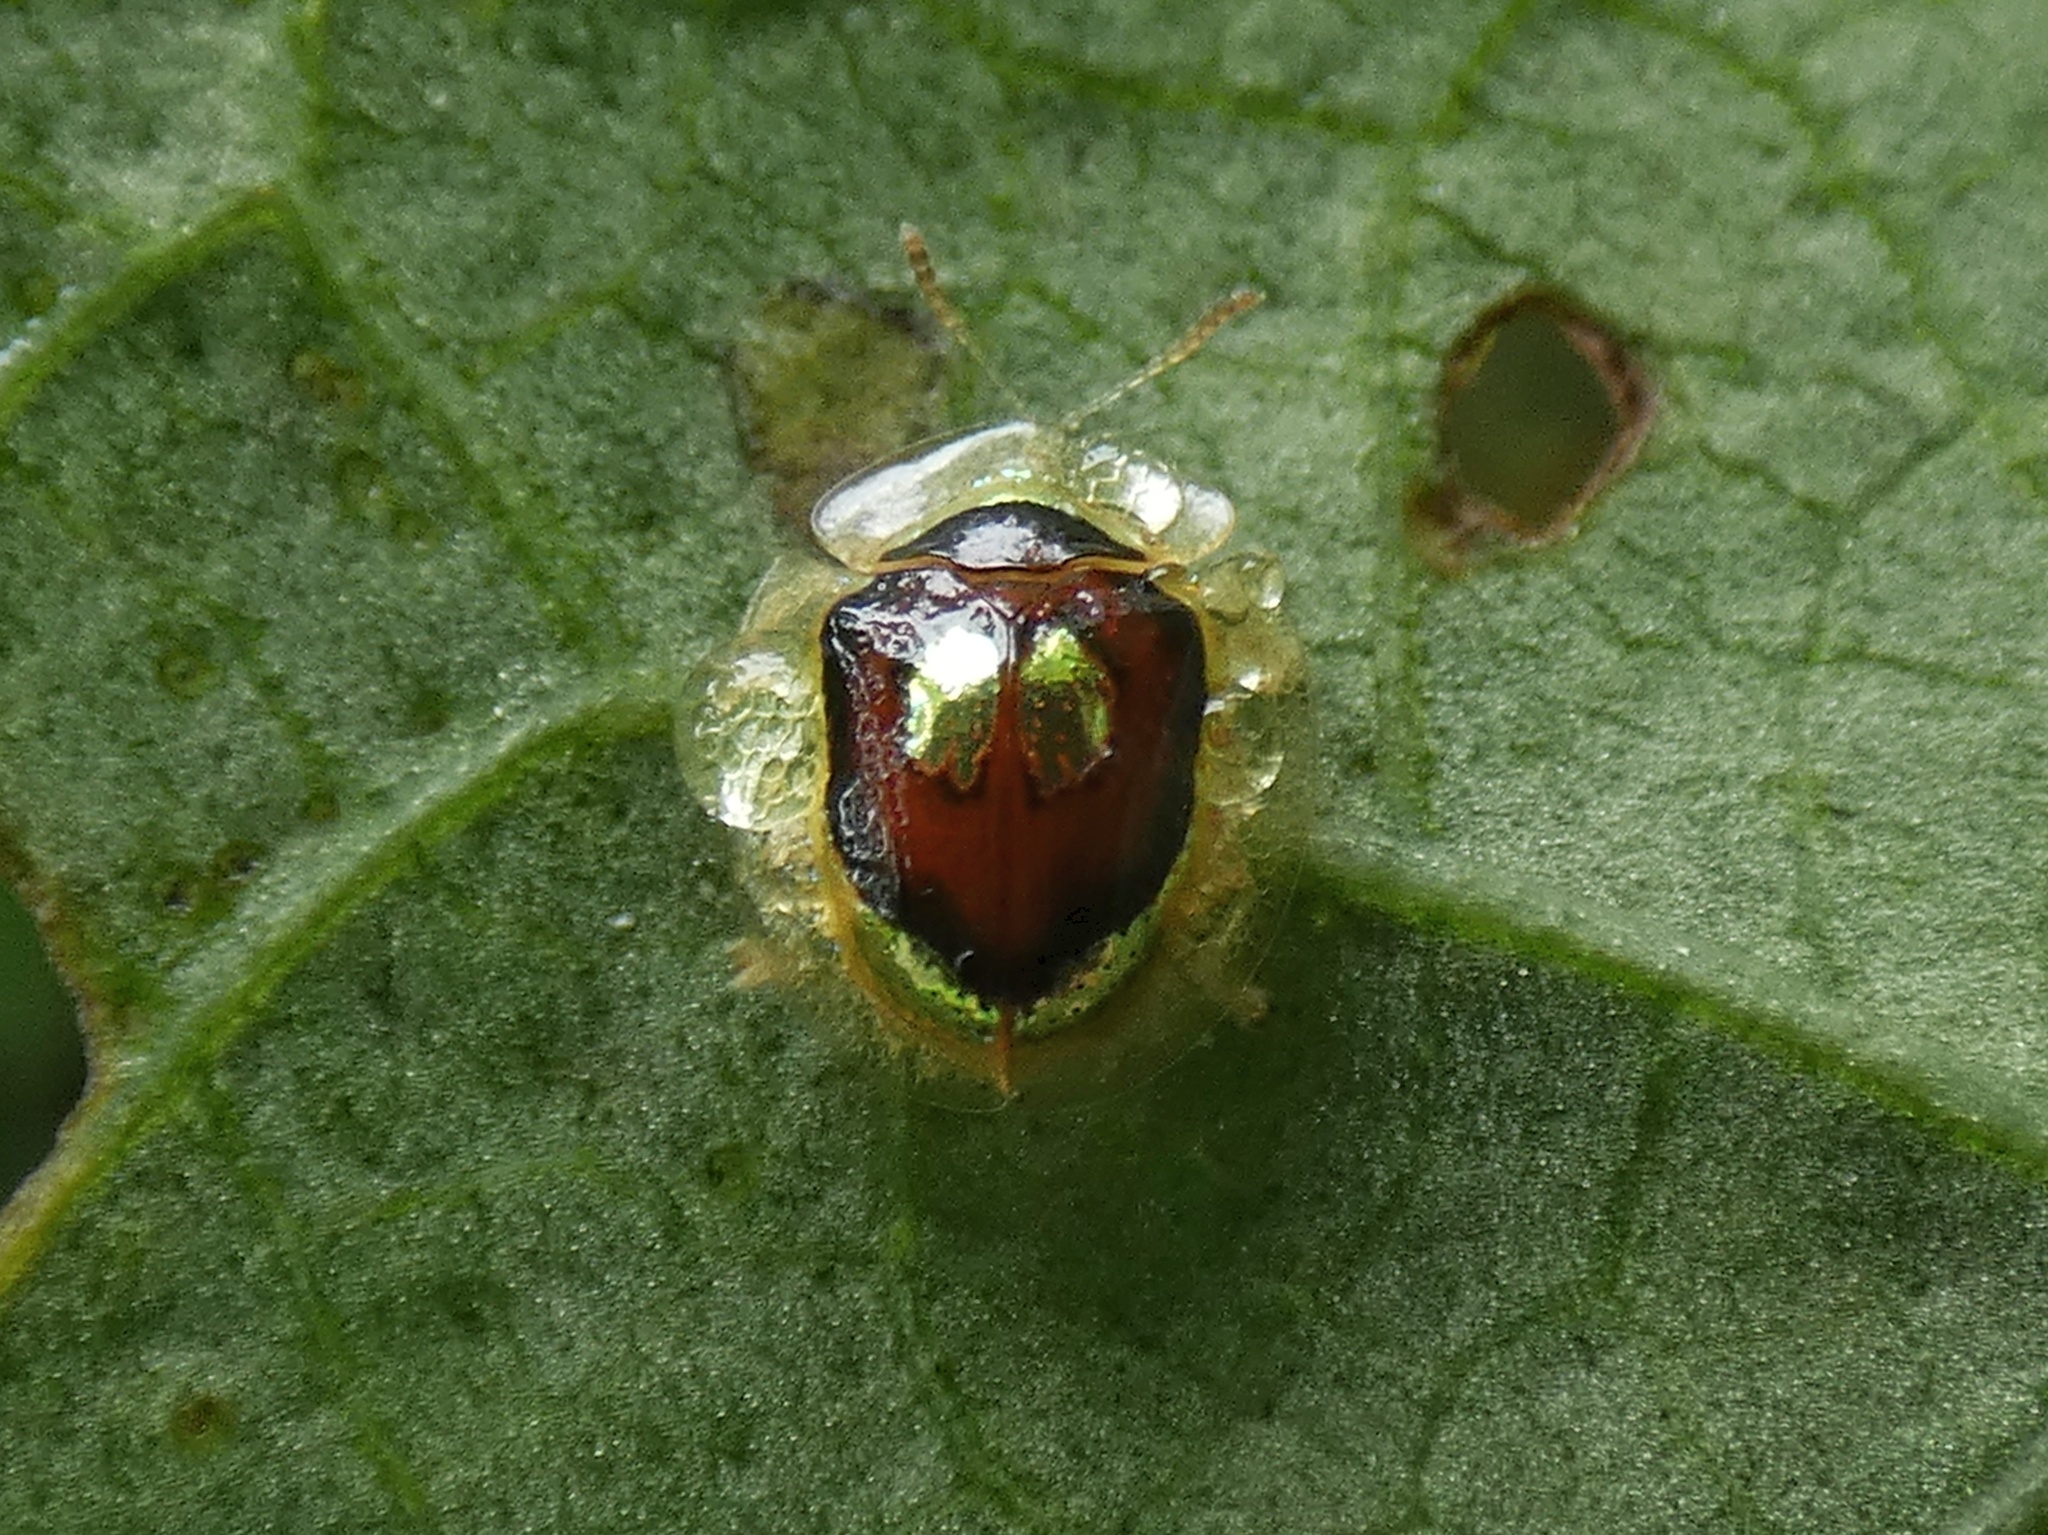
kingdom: Animalia
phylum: Arthropoda
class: Insecta
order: Coleoptera
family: Chrysomelidae
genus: Charidotella
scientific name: Charidotella puella
